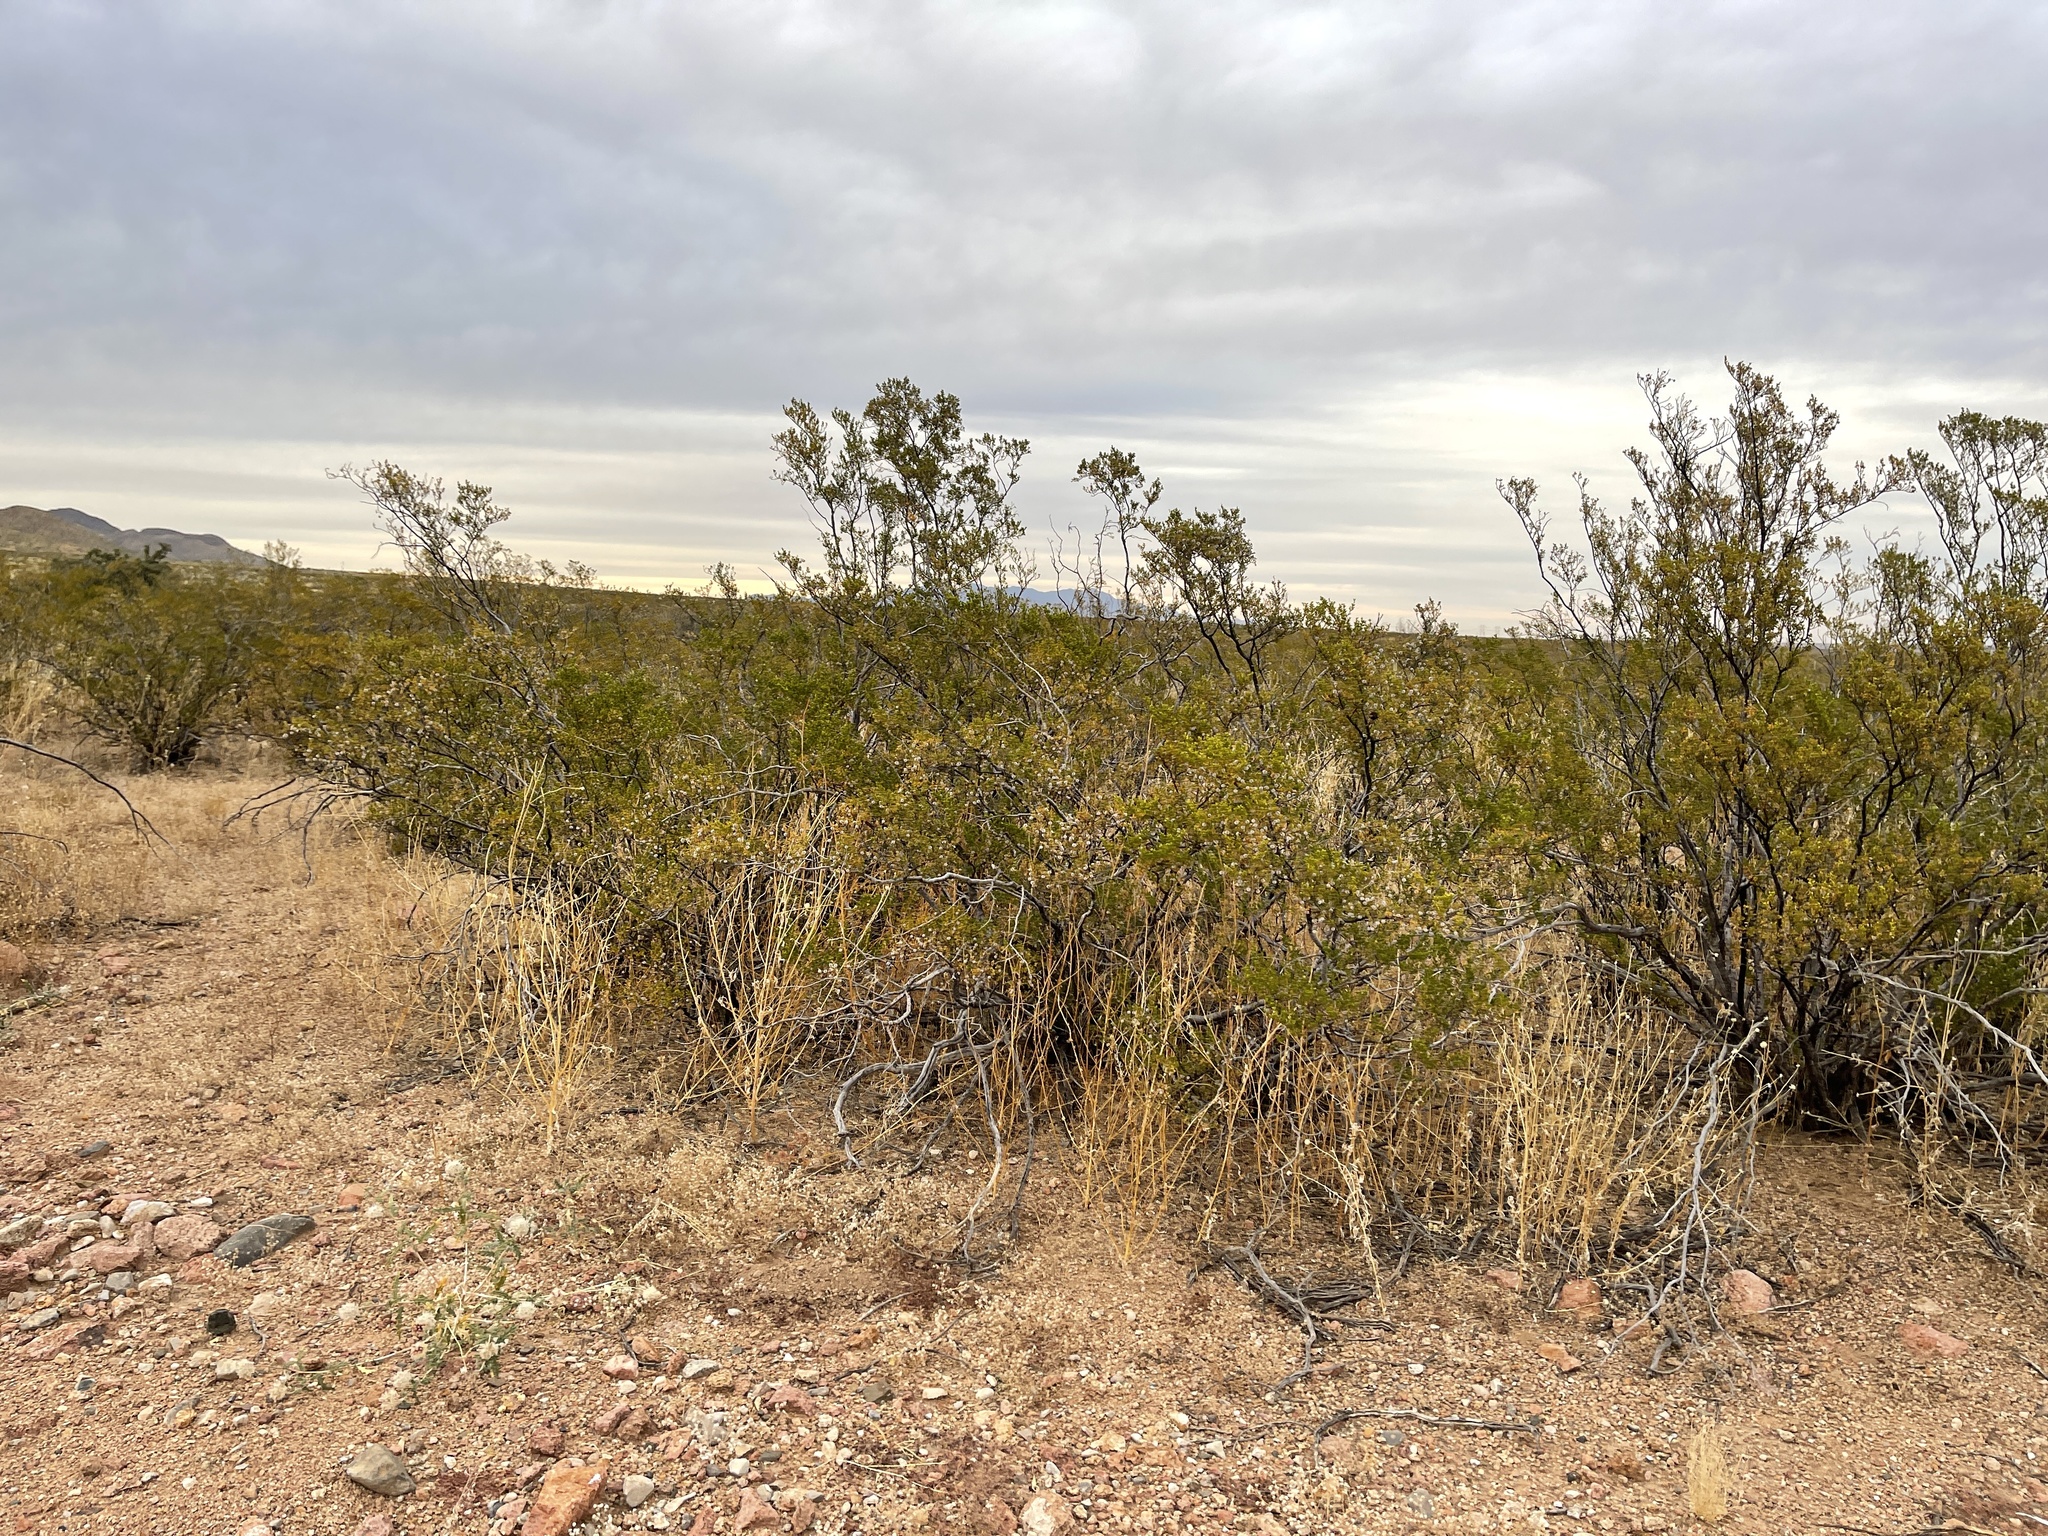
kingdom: Plantae
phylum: Tracheophyta
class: Magnoliopsida
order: Zygophyllales
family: Zygophyllaceae
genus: Larrea
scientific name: Larrea tridentata
